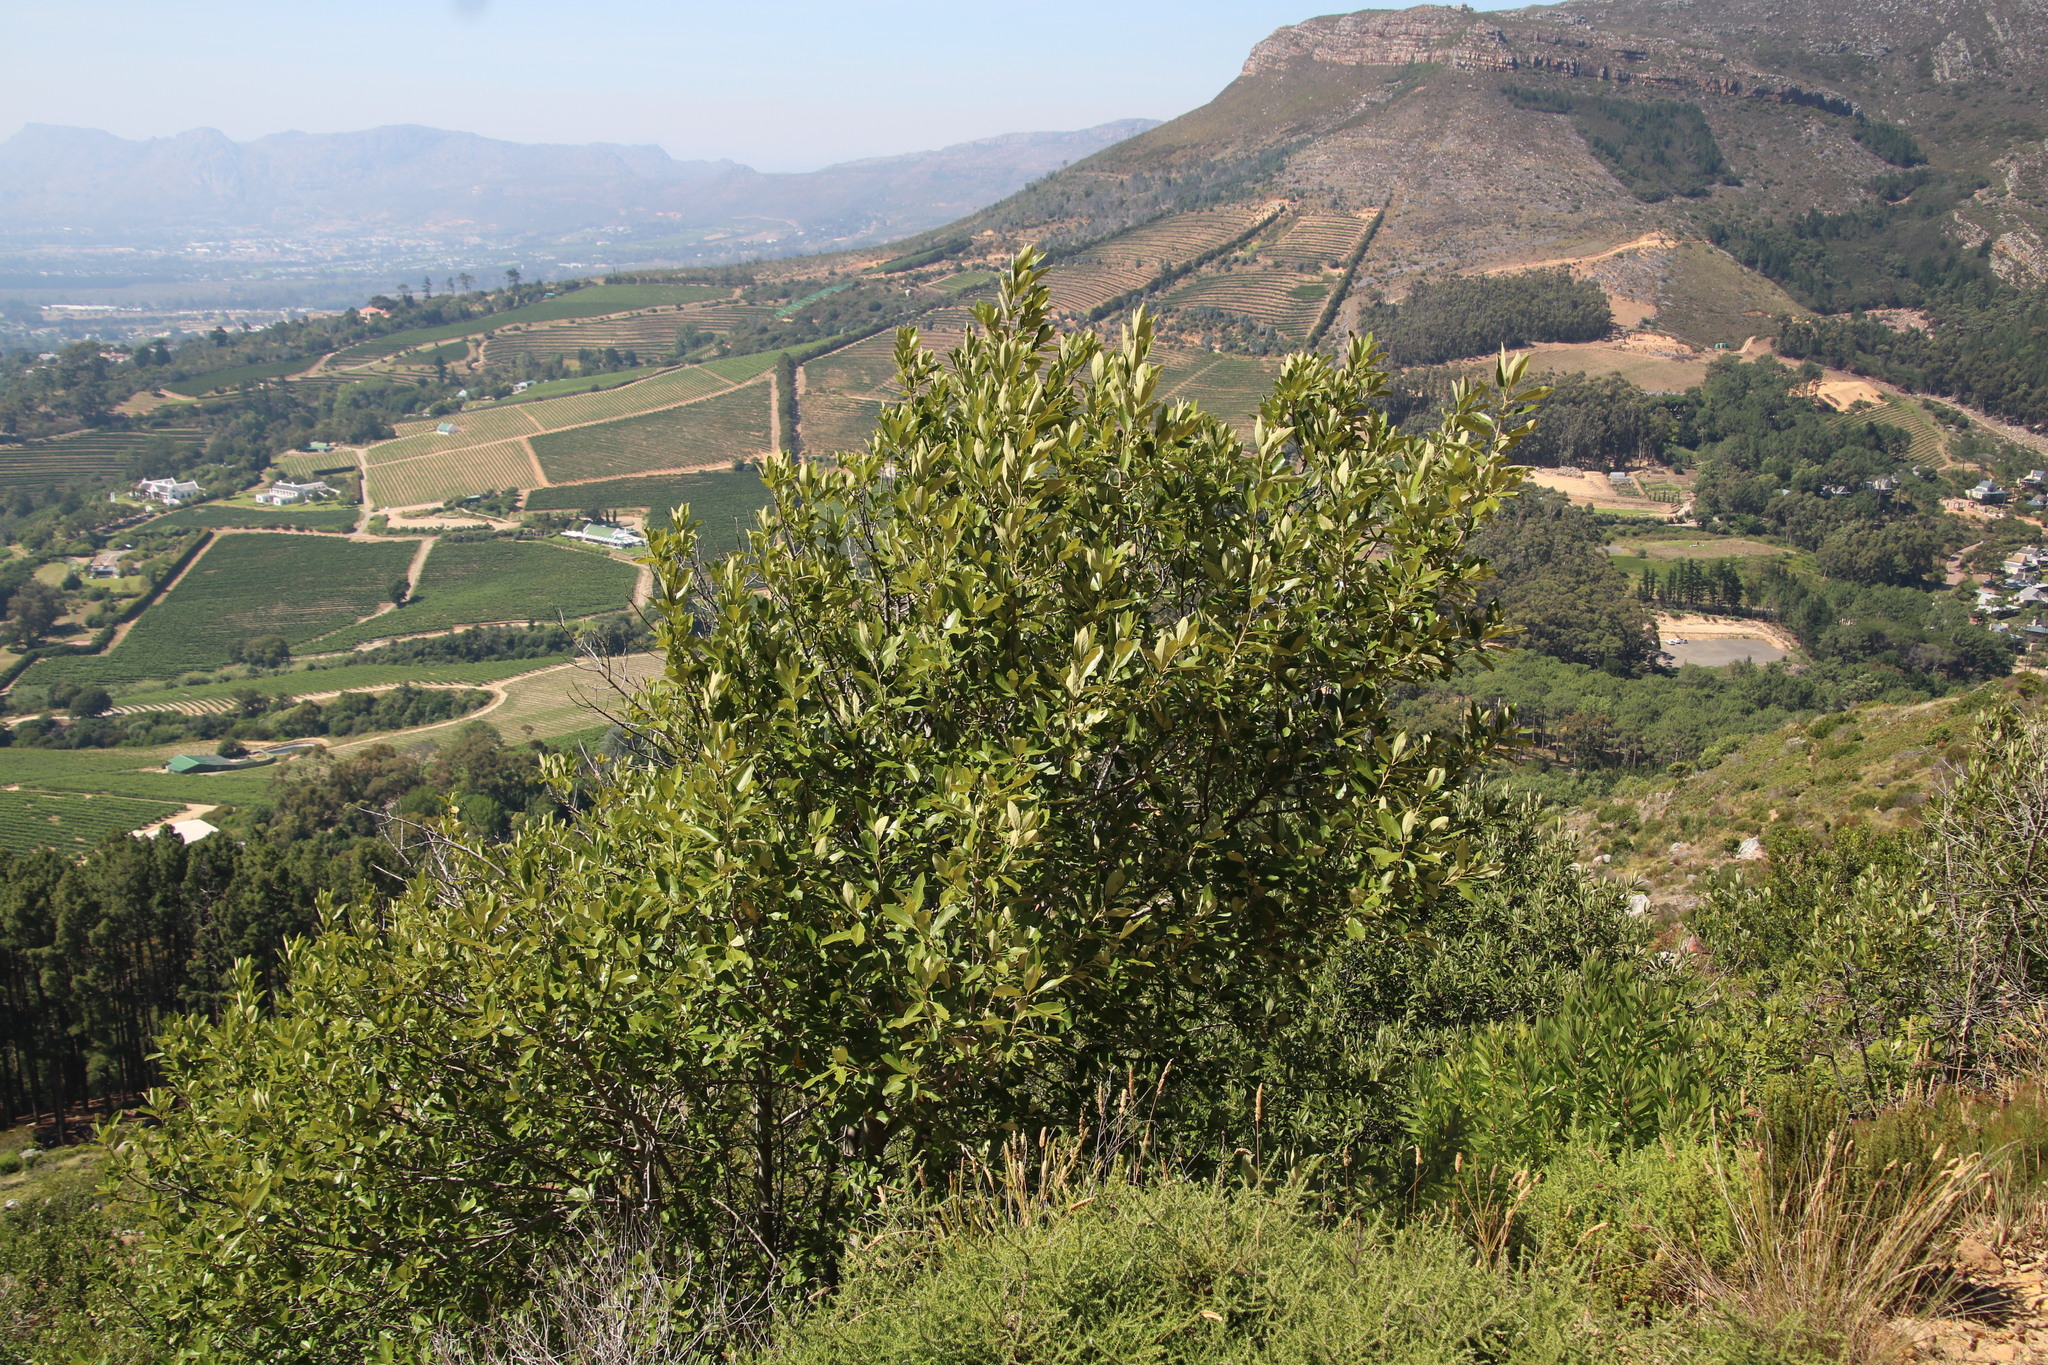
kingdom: Plantae
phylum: Tracheophyta
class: Magnoliopsida
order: Malpighiales
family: Achariaceae
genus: Kiggelaria
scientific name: Kiggelaria africana
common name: Wild peach
